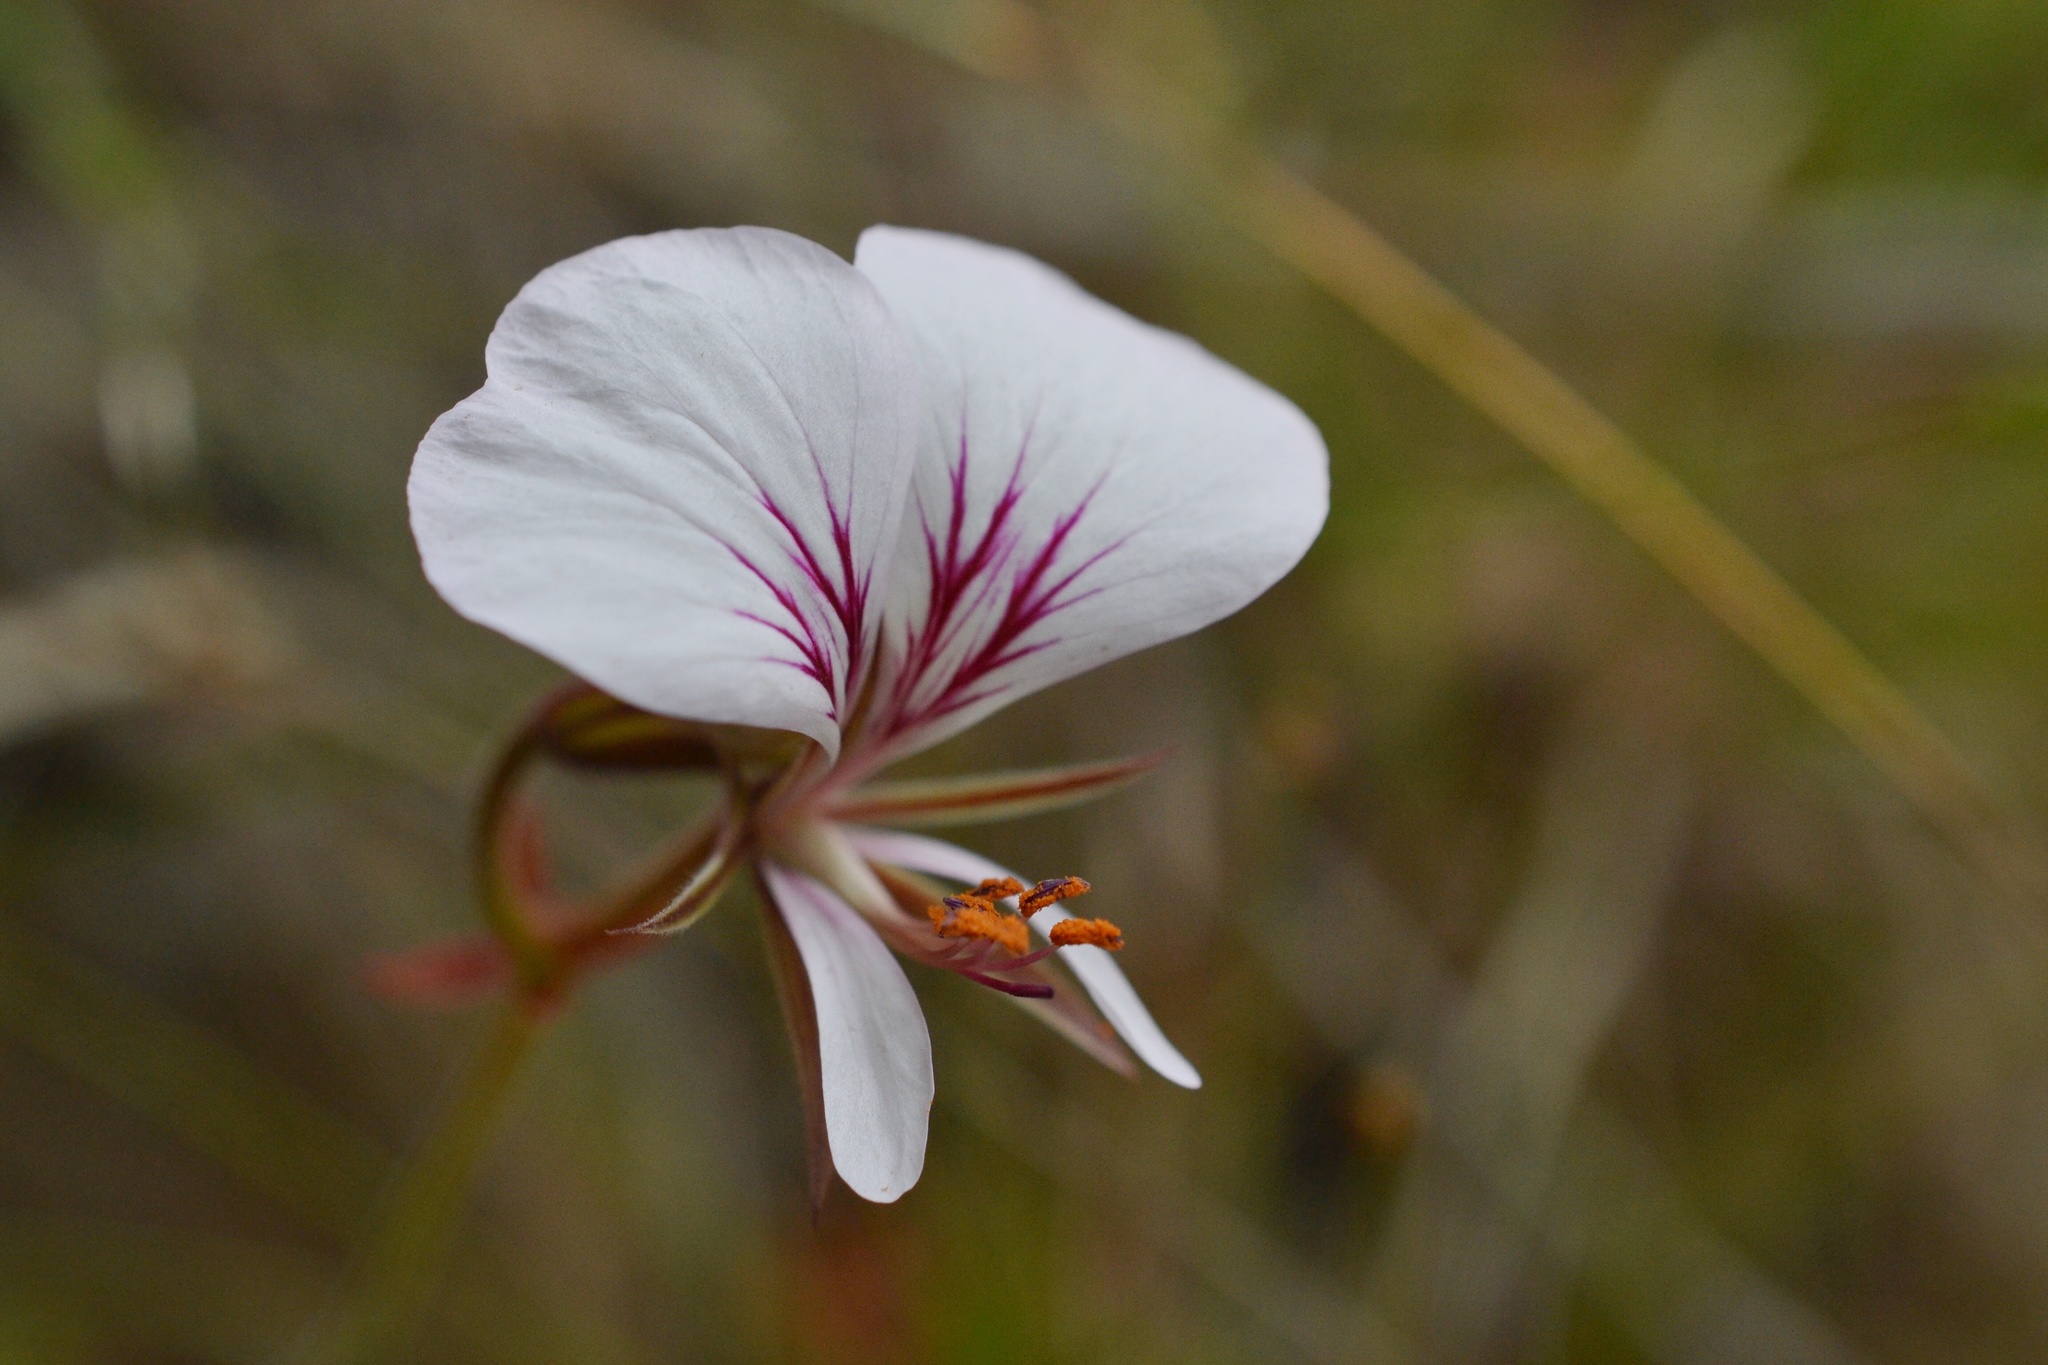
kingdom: Plantae
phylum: Tracheophyta
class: Magnoliopsida
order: Geraniales
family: Geraniaceae
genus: Pelargonium
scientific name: Pelargonium longicaule
